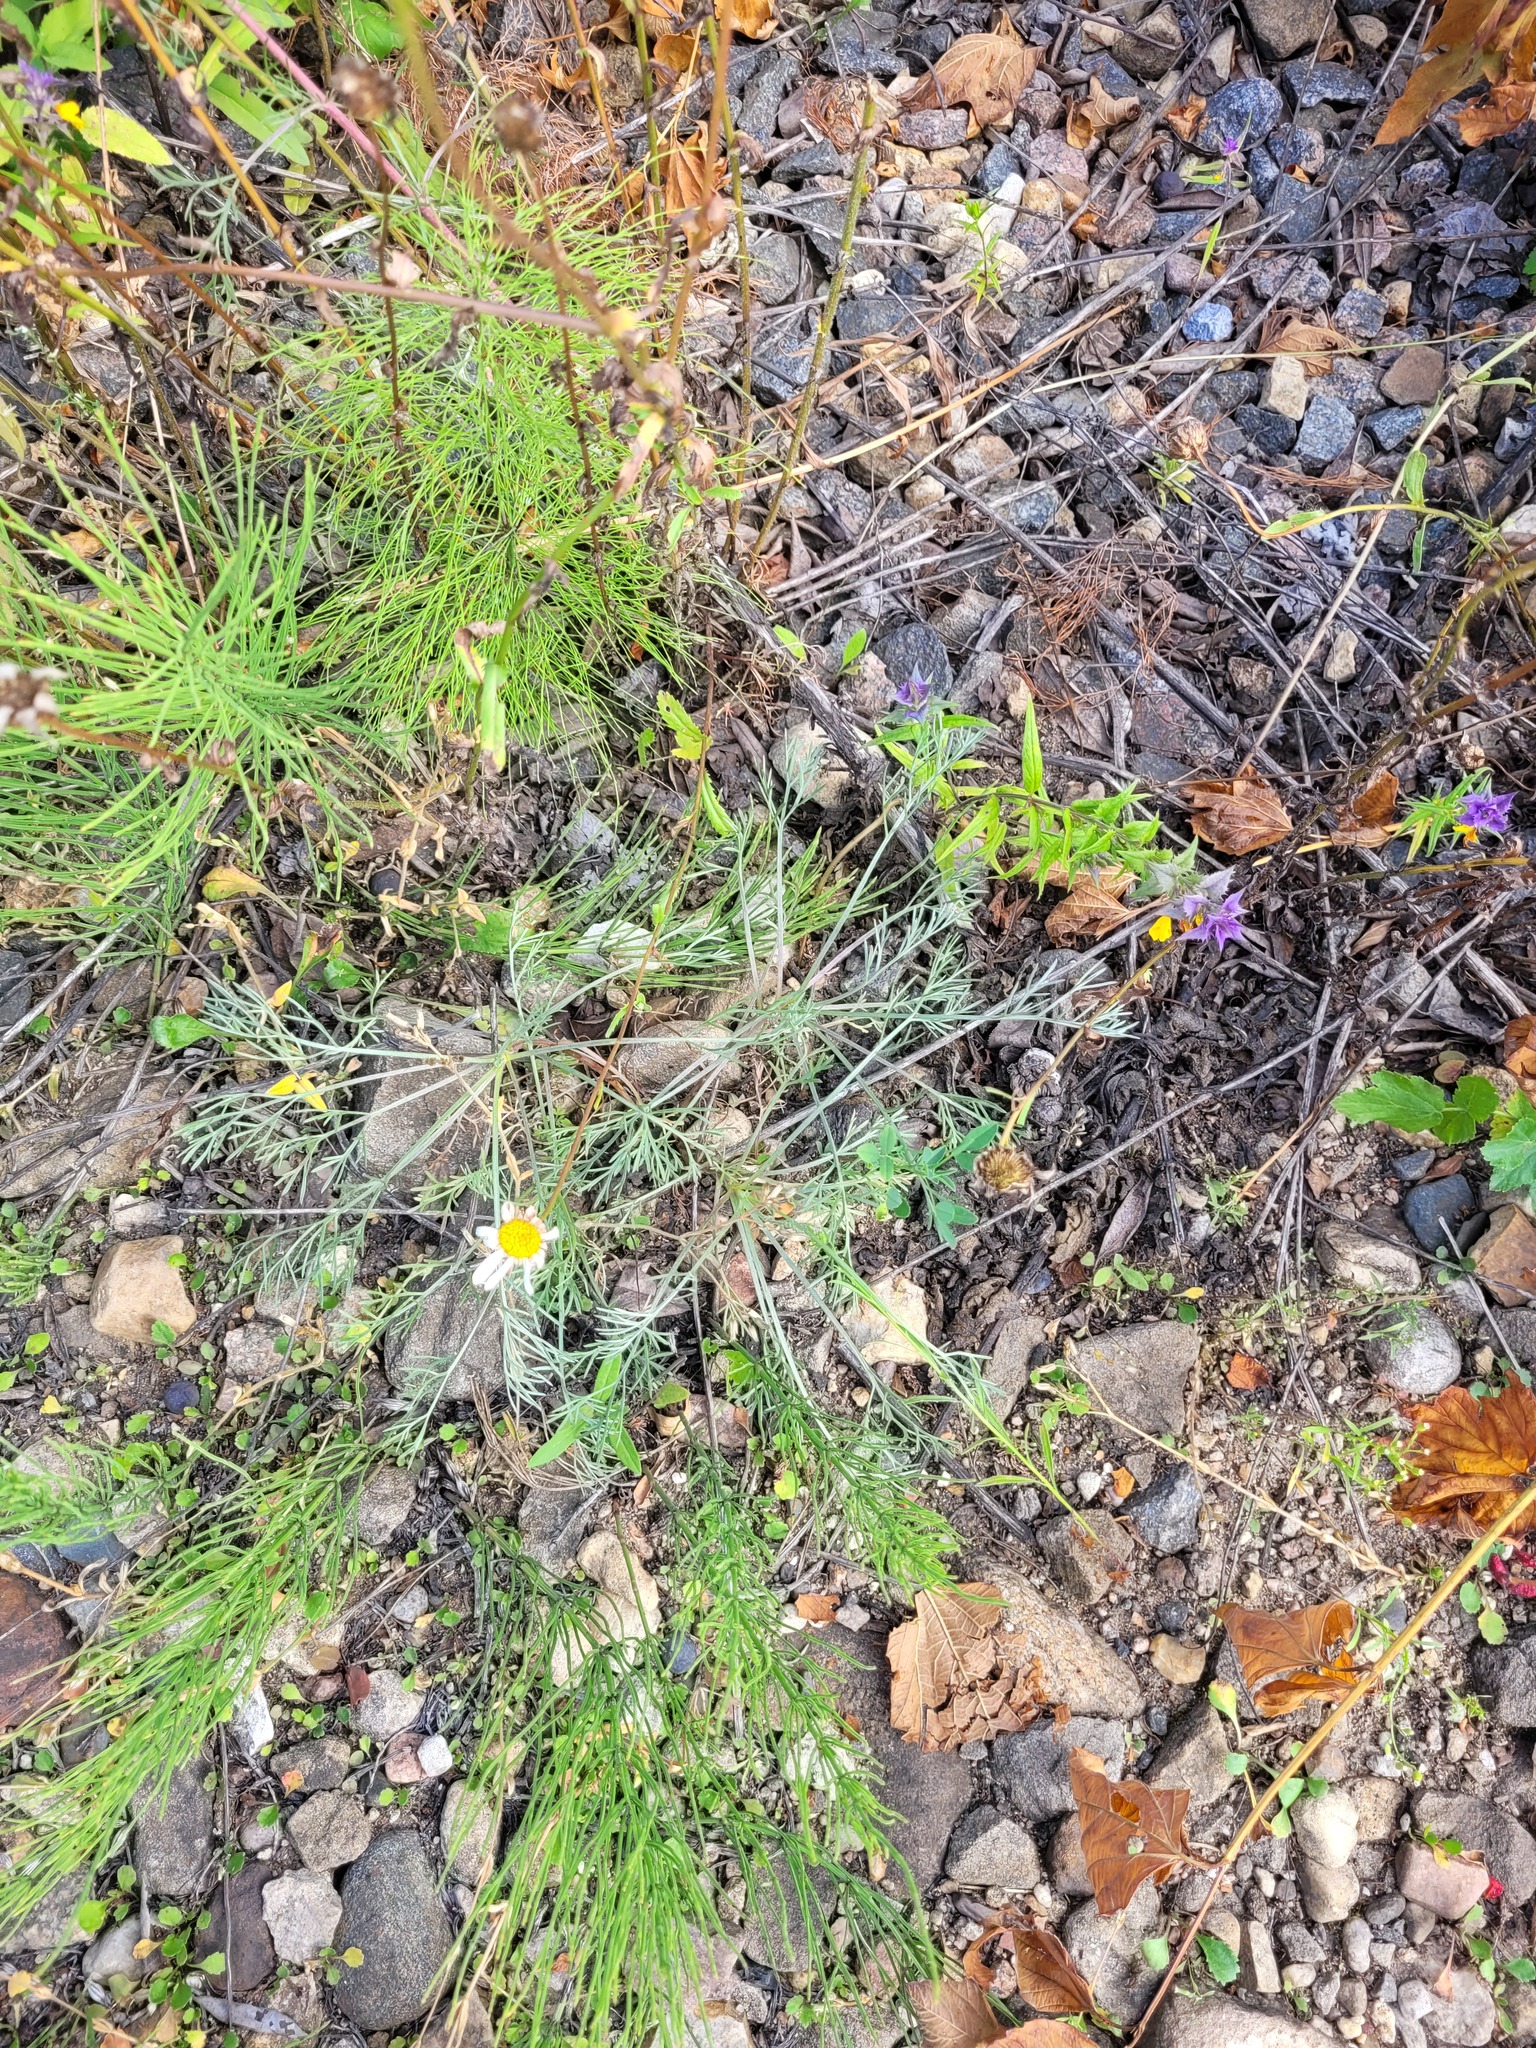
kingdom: Plantae
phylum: Tracheophyta
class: Magnoliopsida
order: Asterales
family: Asteraceae
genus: Artemisia
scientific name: Artemisia campestris
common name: Field wormwood
